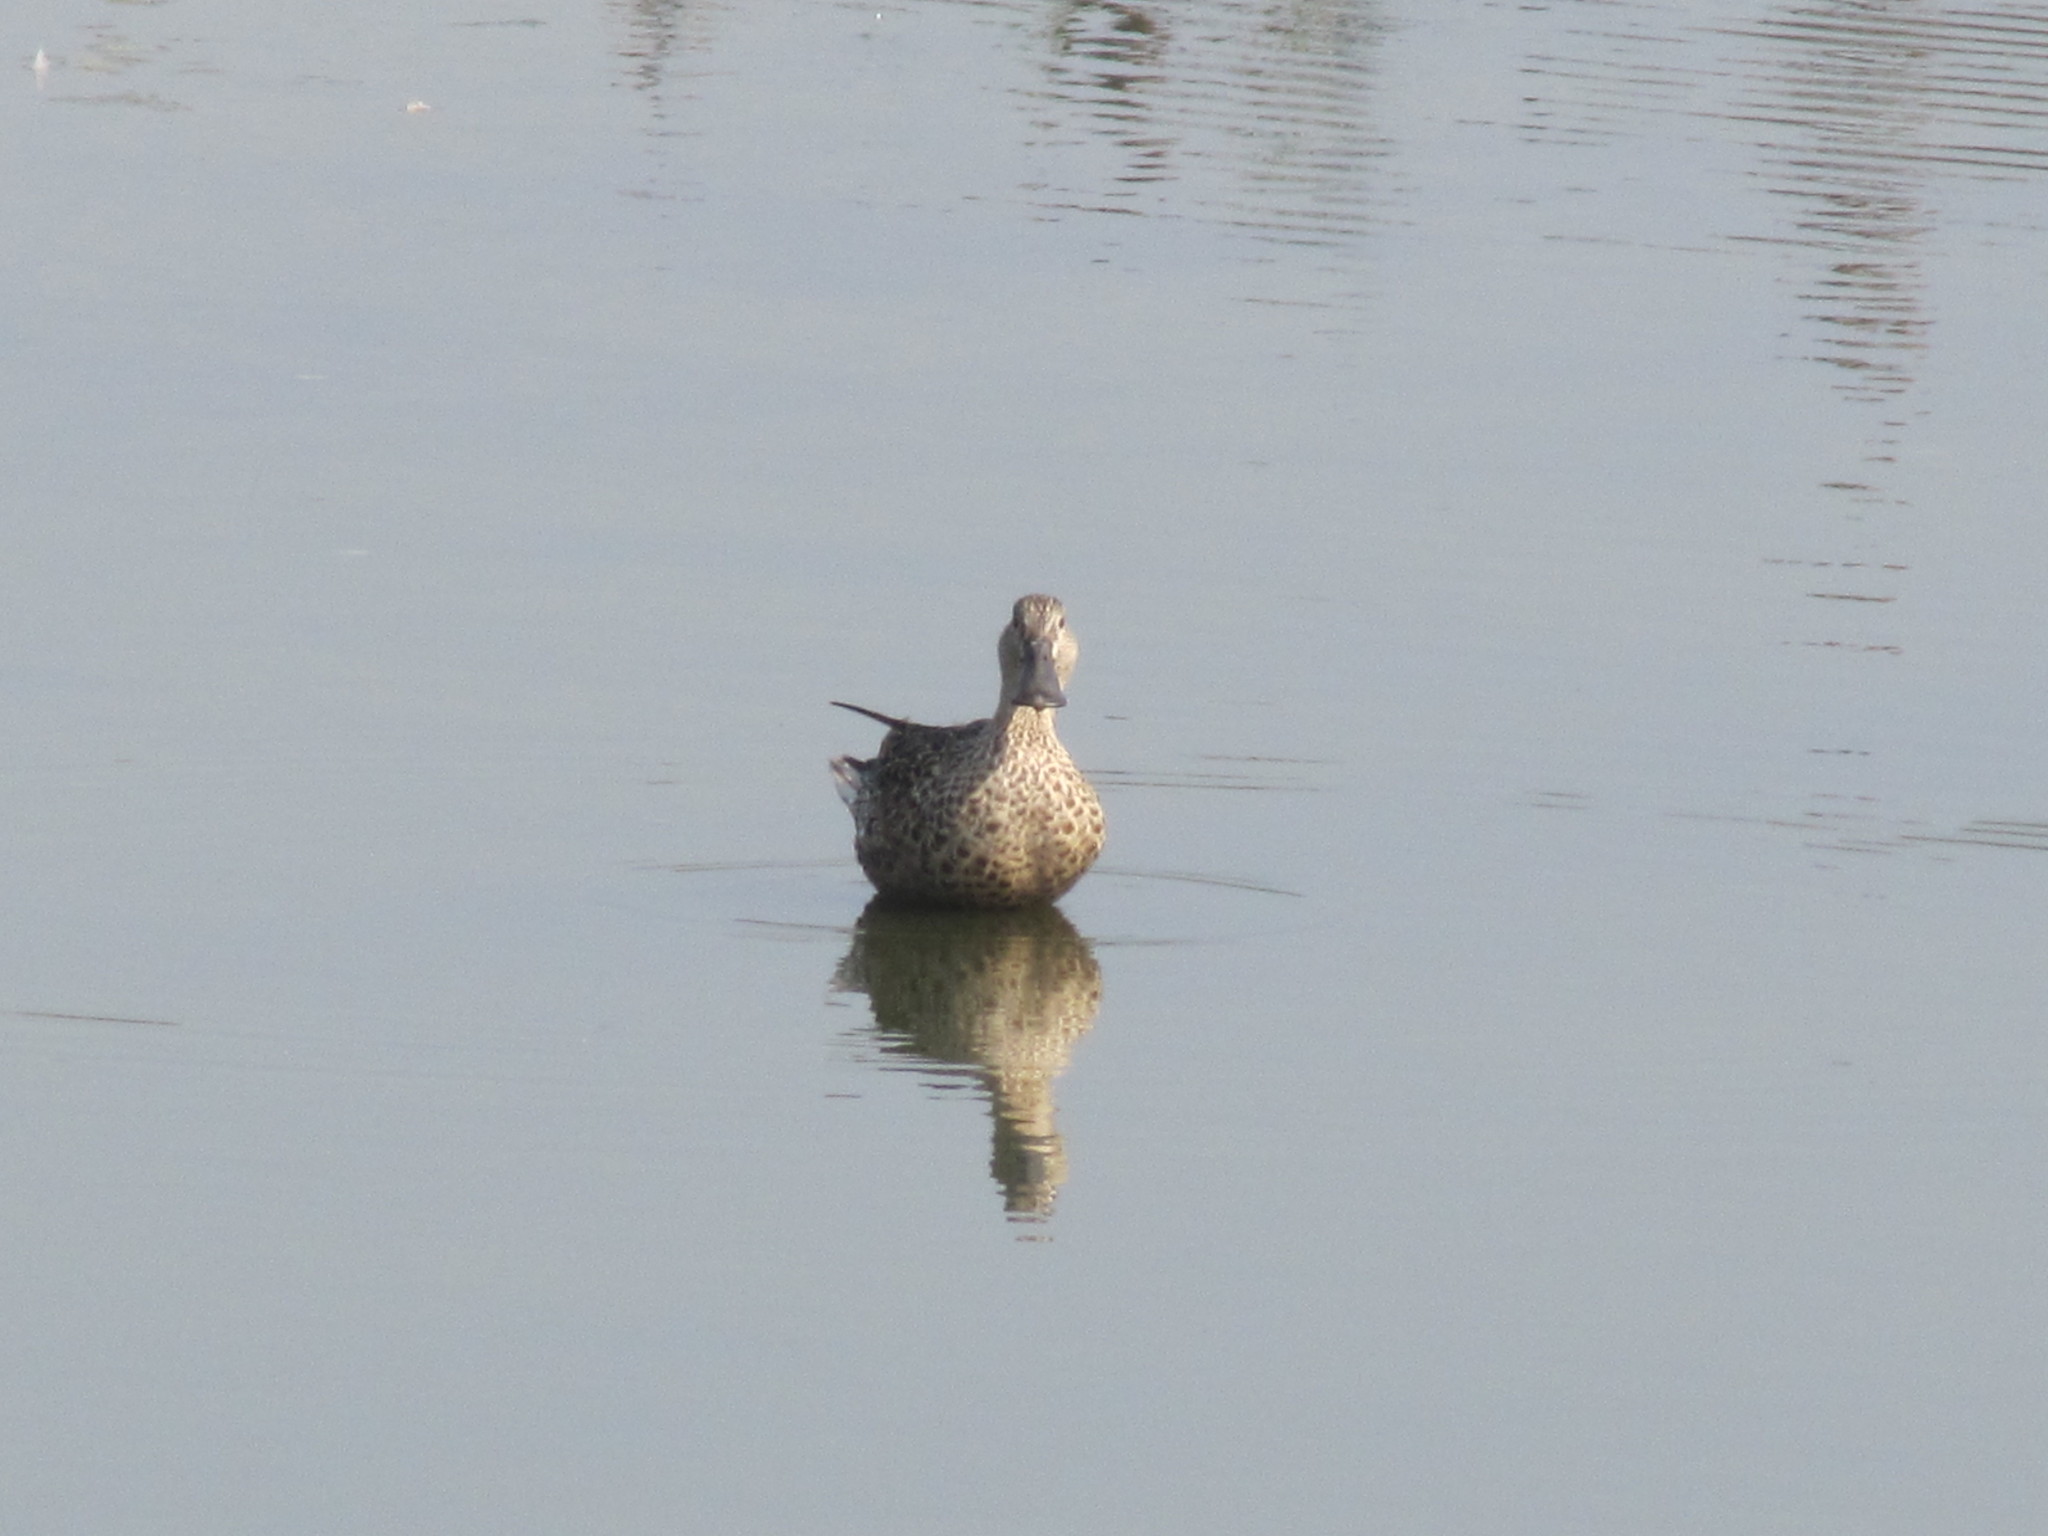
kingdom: Animalia
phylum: Chordata
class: Aves
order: Anseriformes
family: Anatidae
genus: Spatula
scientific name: Spatula clypeata
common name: Northern shoveler
